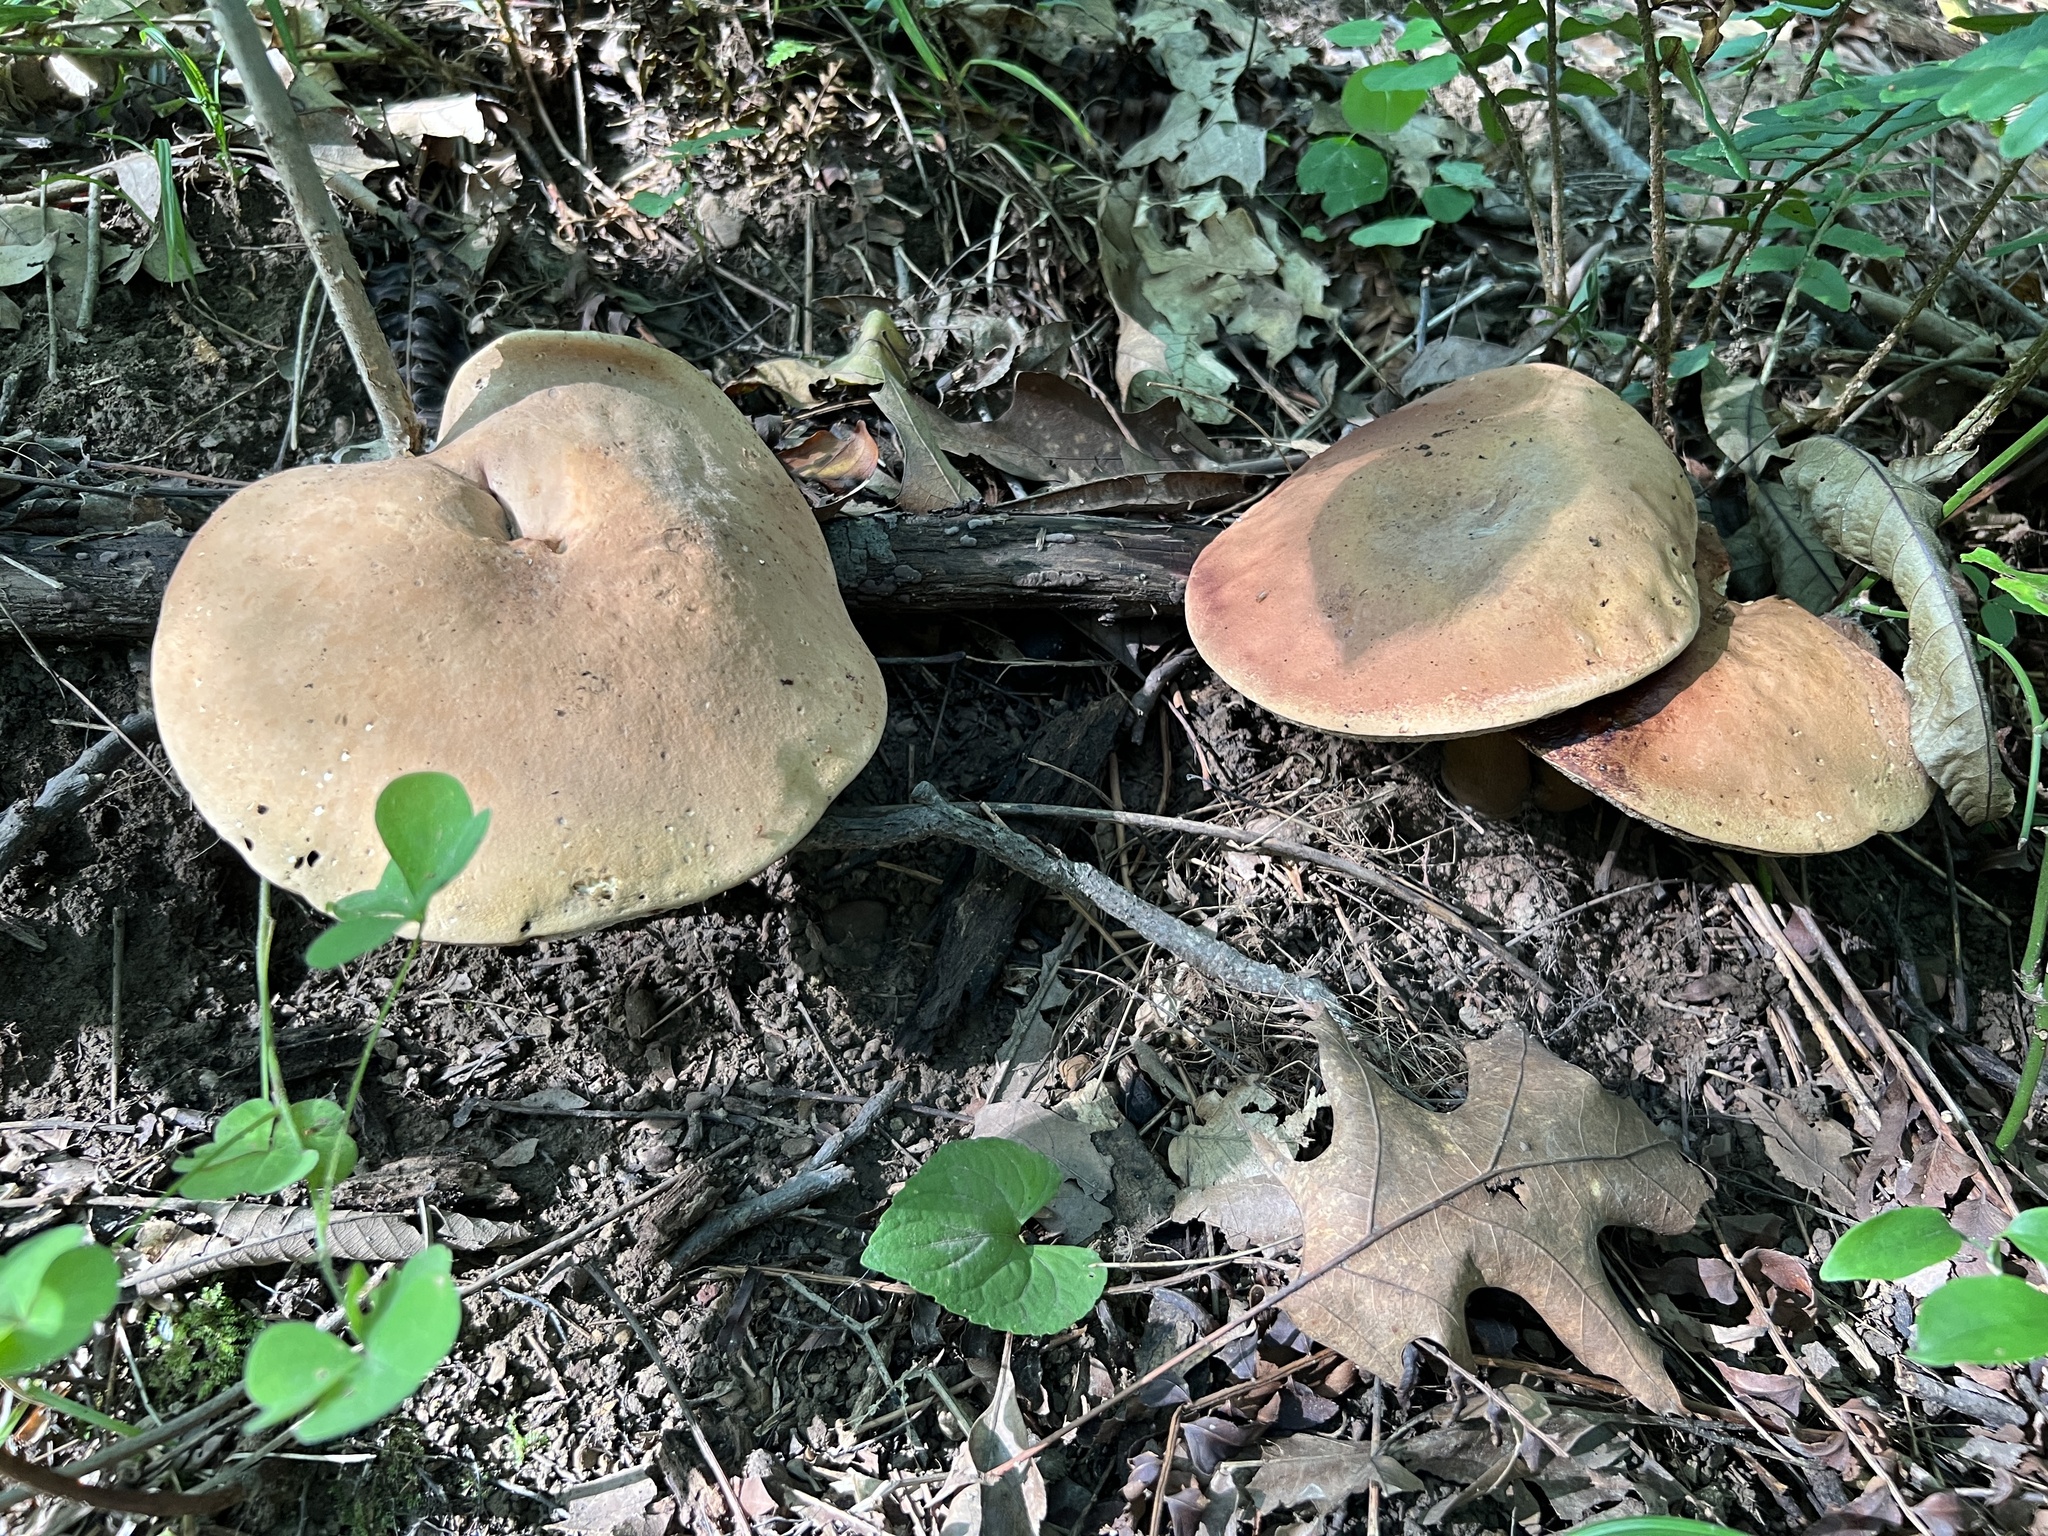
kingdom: Fungi
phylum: Basidiomycota
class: Agaricomycetes
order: Boletales
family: Boletaceae
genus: Tylopilus
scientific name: Tylopilus felleus
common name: Bitter bolete
